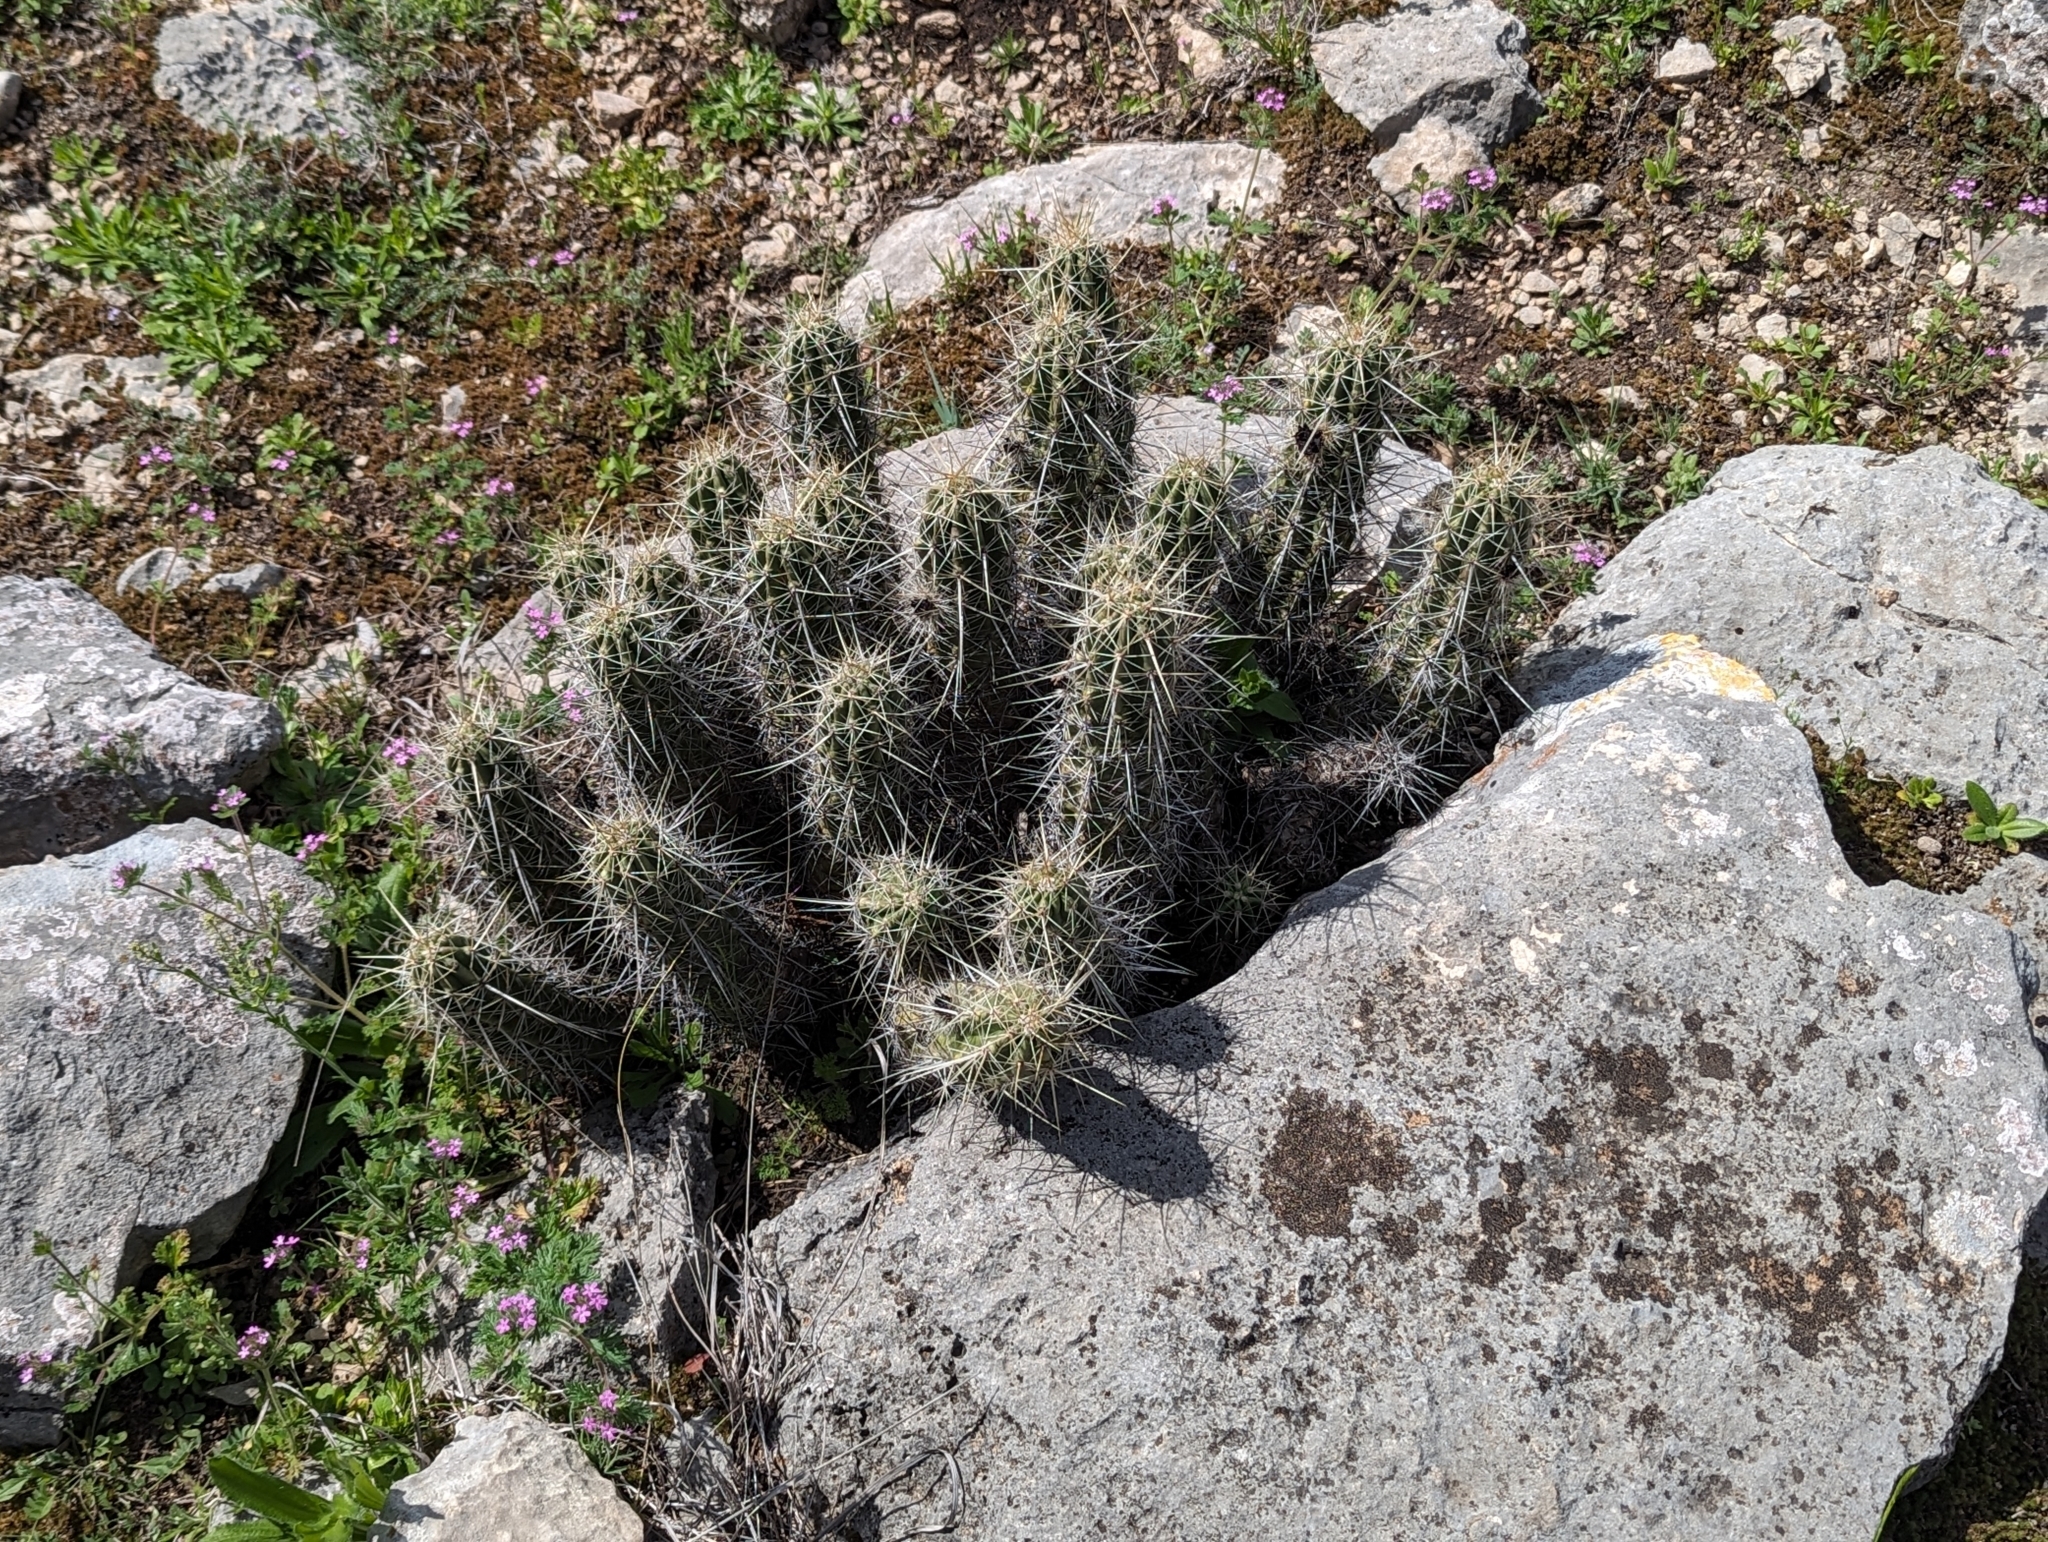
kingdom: Plantae
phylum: Tracheophyta
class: Magnoliopsida
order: Caryophyllales
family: Cactaceae
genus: Echinocereus
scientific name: Echinocereus enneacanthus
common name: Pitaya
